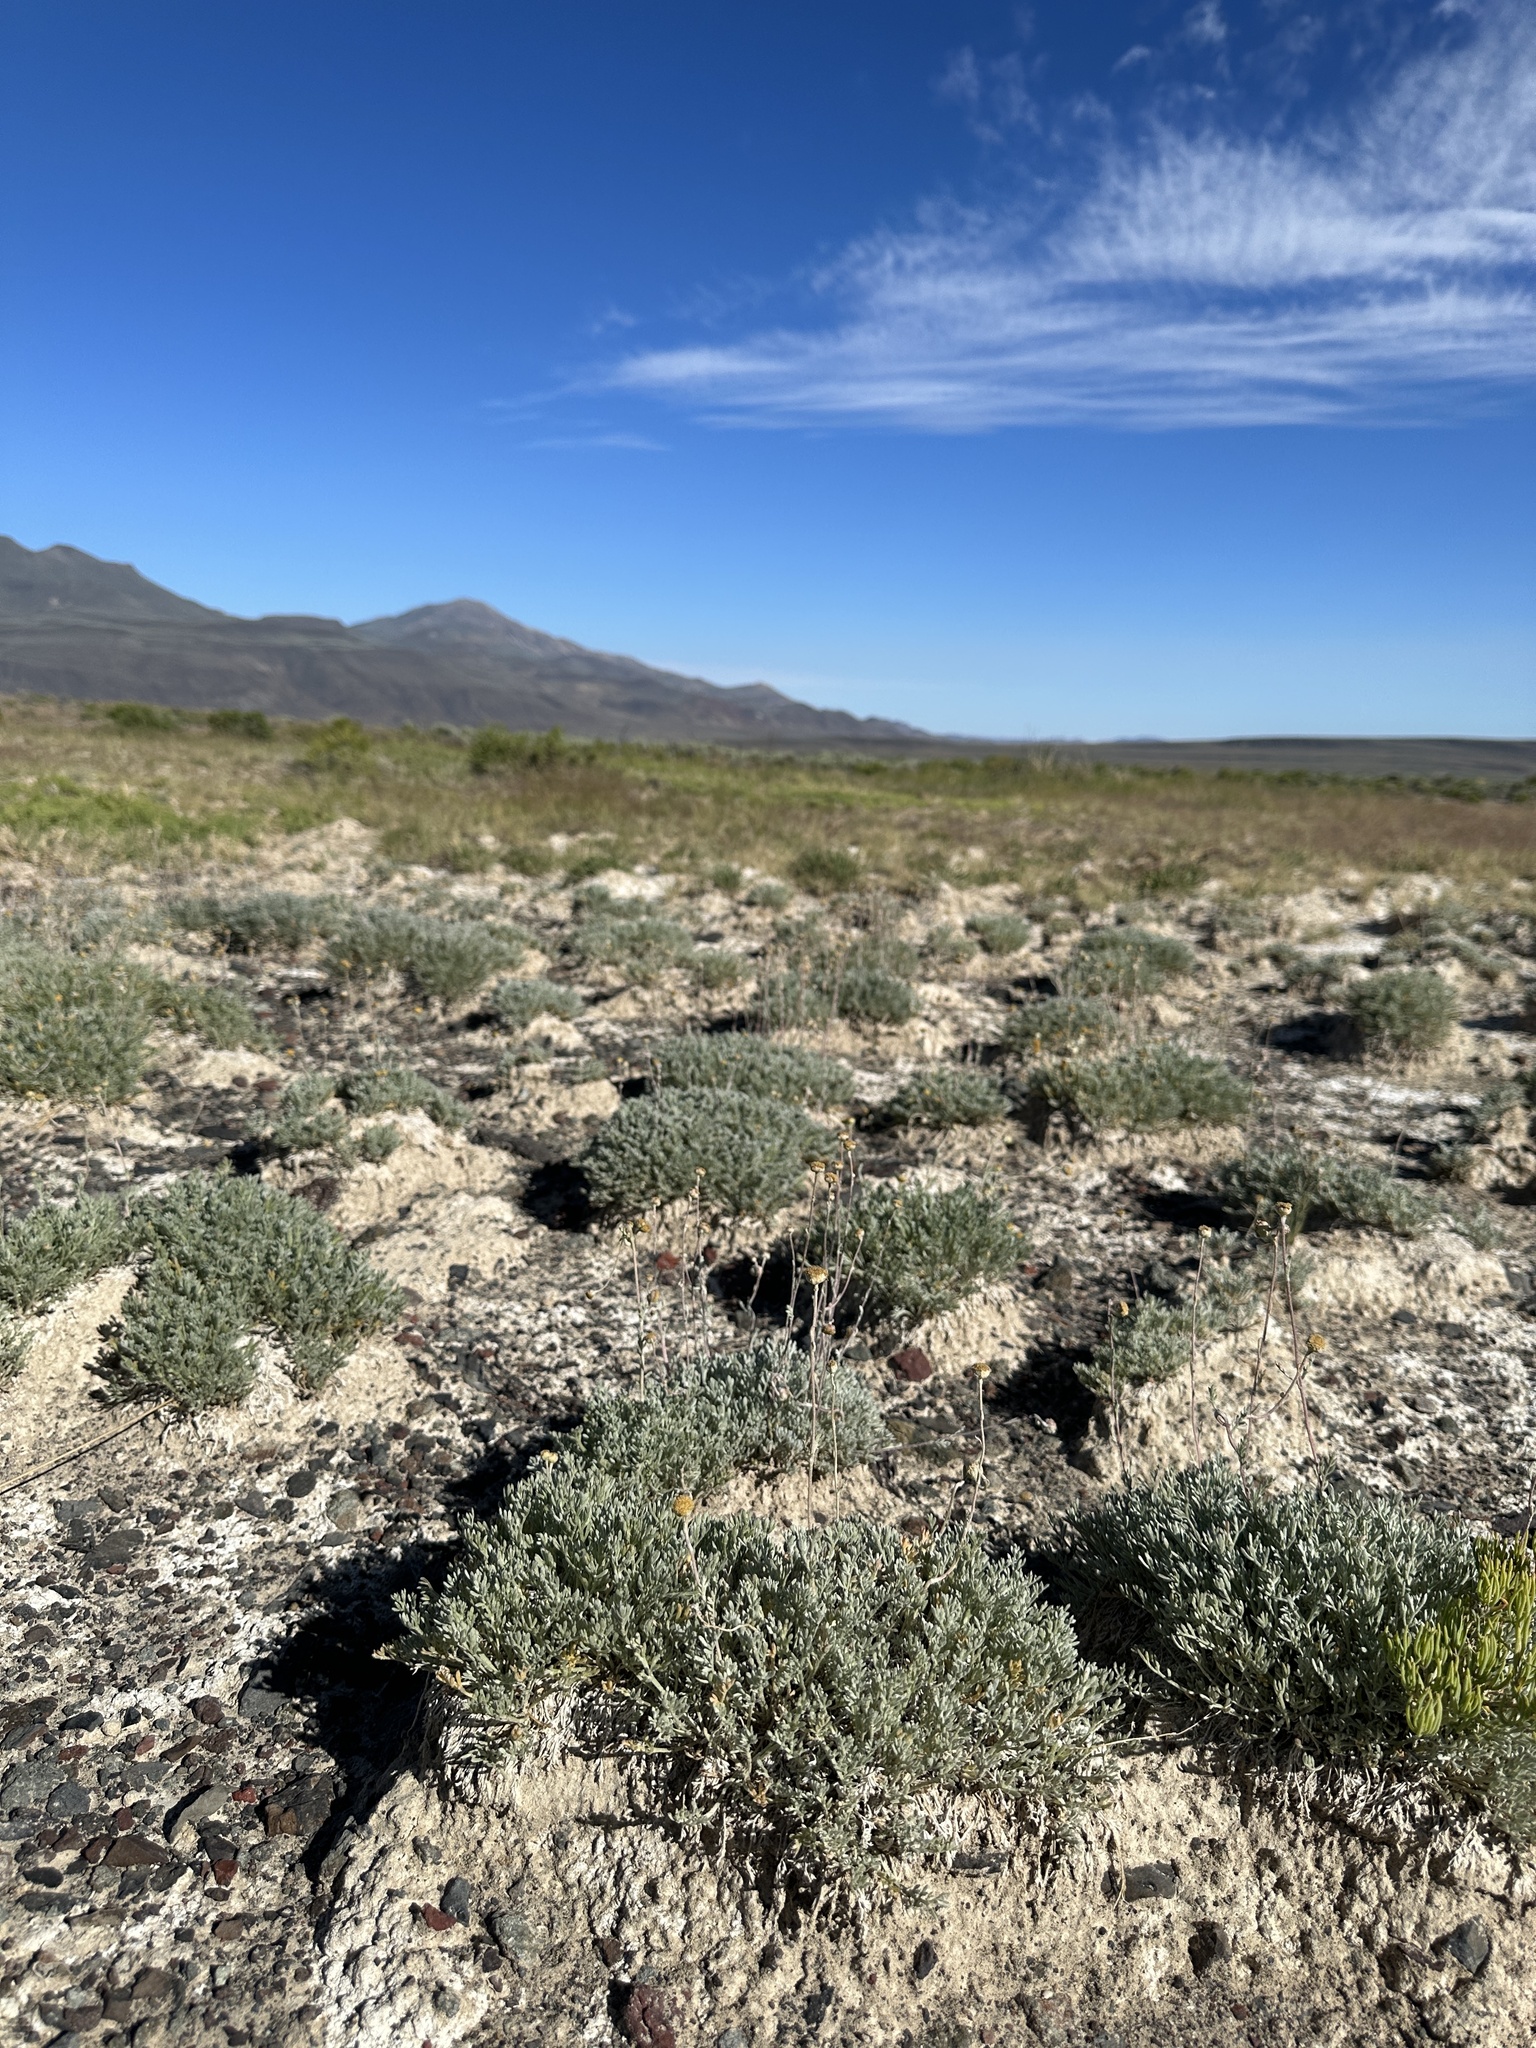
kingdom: Plantae
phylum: Tracheophyta
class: Magnoliopsida
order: Asterales
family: Asteraceae
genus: Artemisia
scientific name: Artemisia potentilloides
